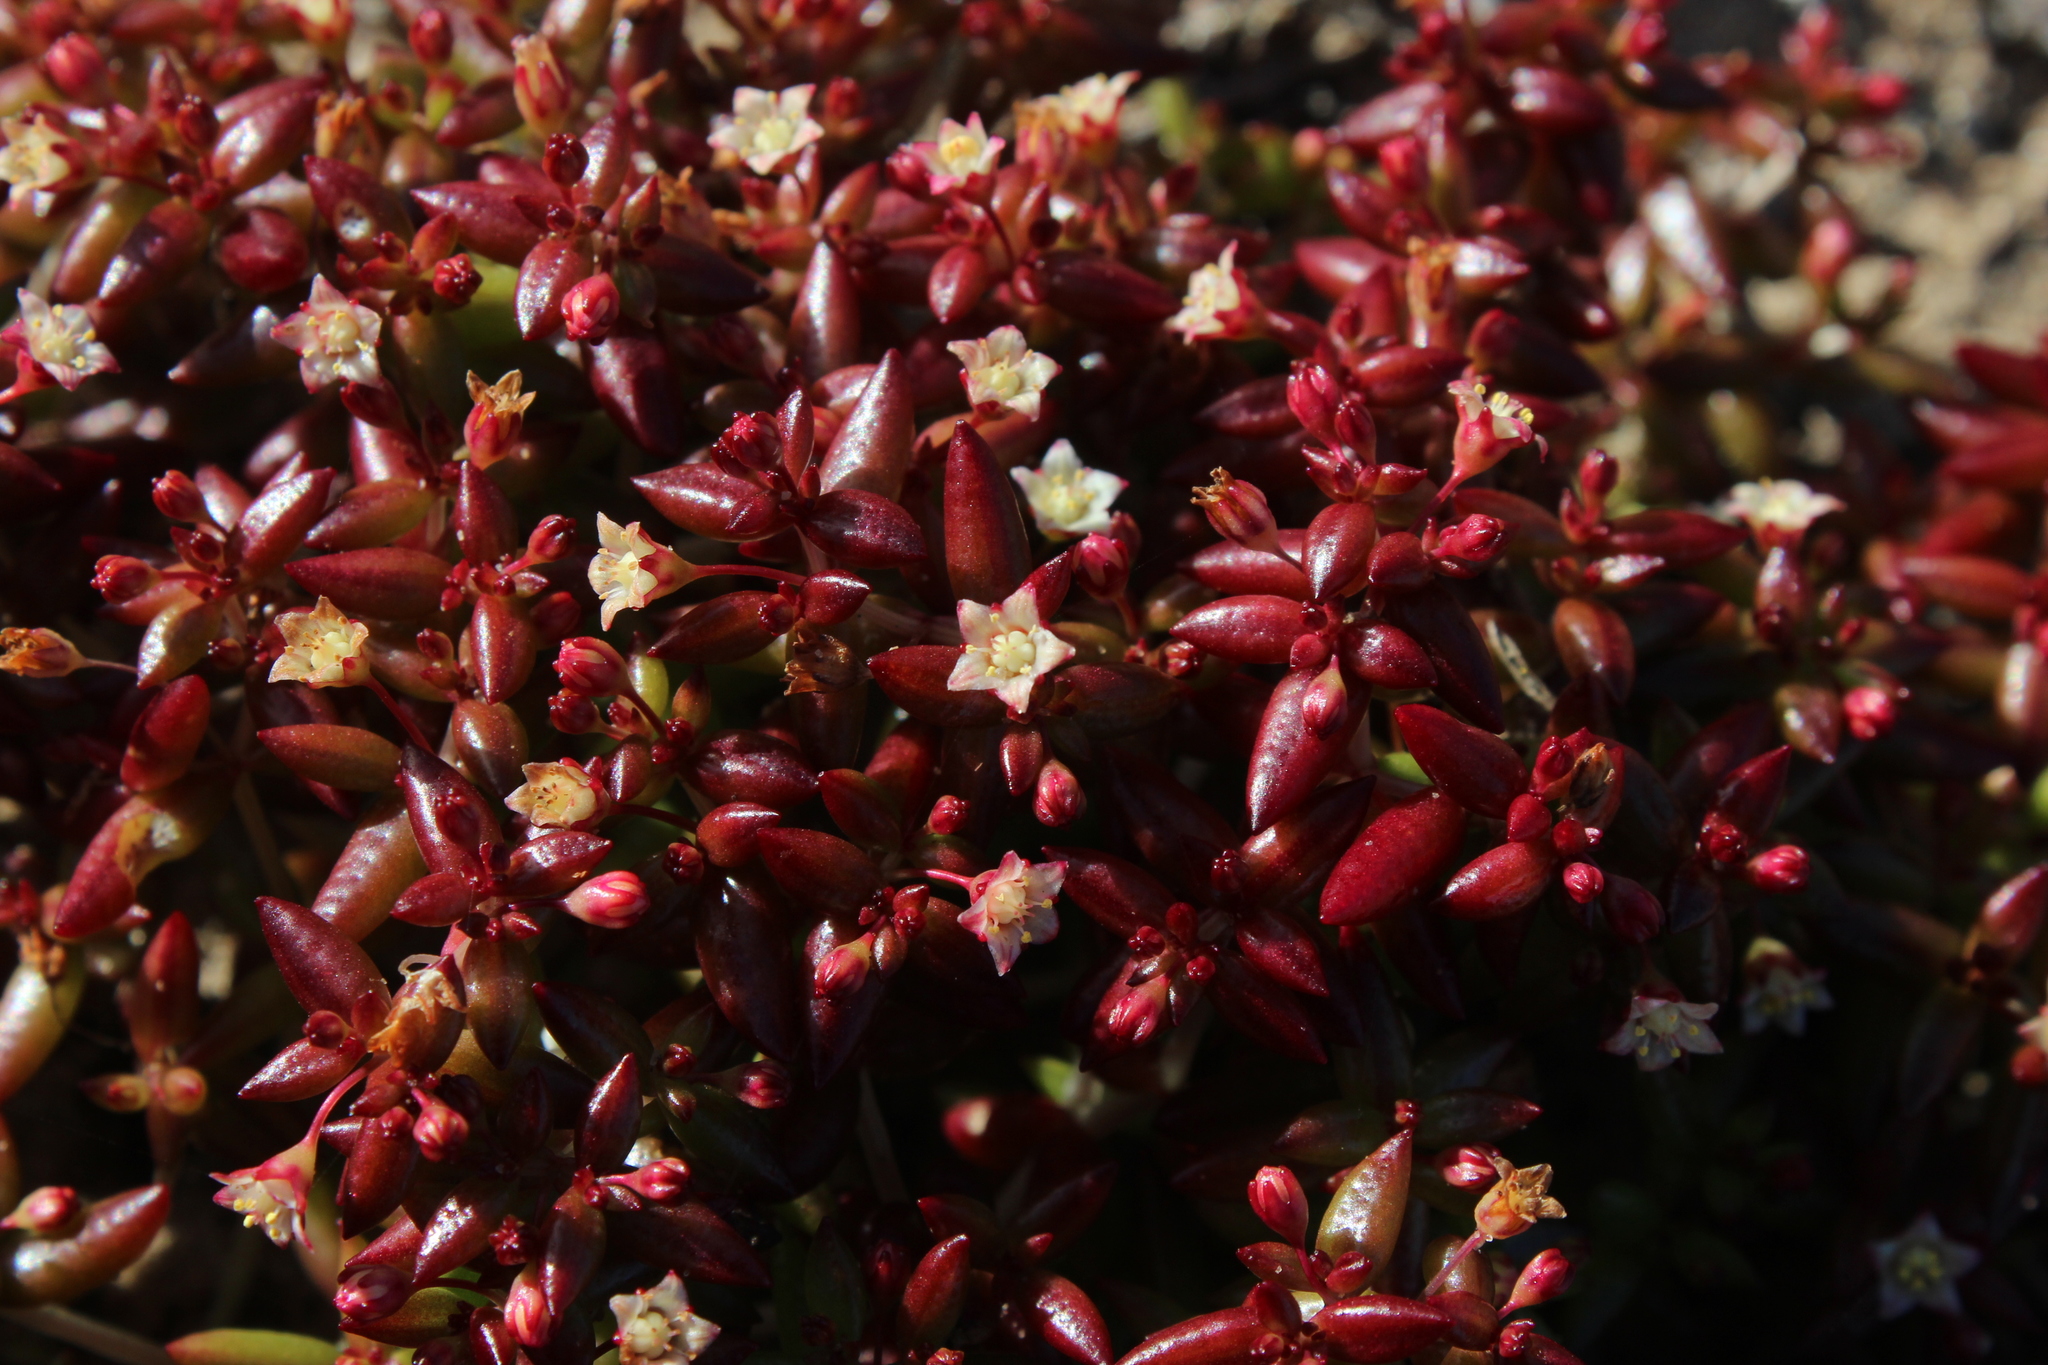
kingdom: Plantae
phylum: Tracheophyta
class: Magnoliopsida
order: Saxifragales
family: Crassulaceae
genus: Crassula
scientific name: Crassula expansa
